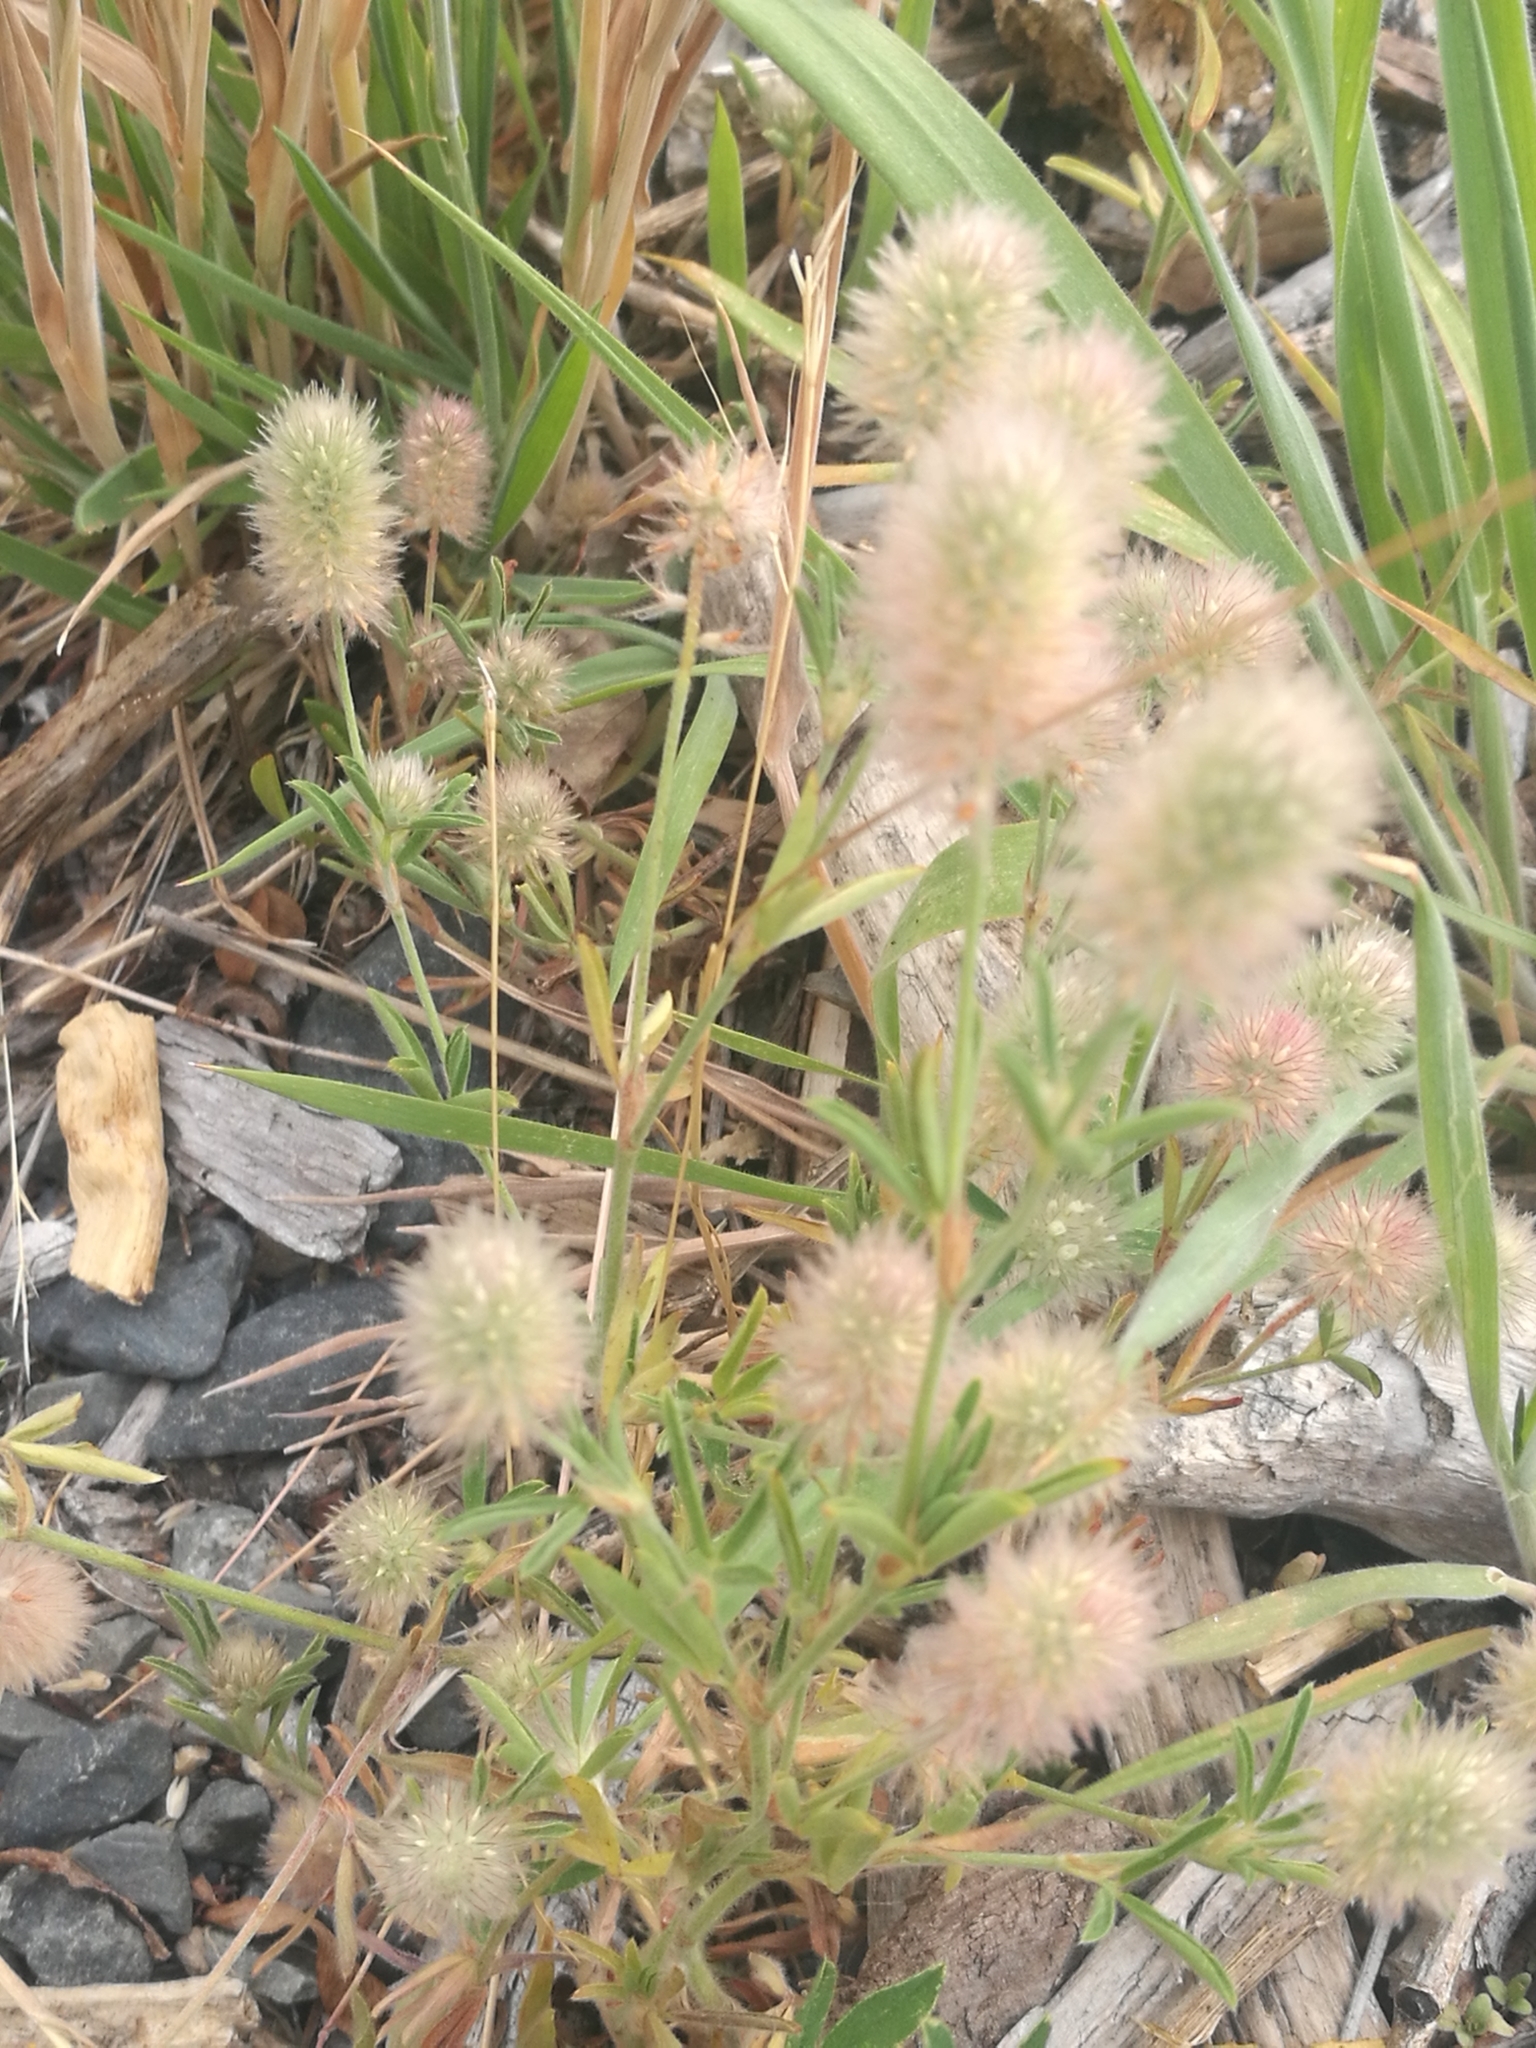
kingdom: Plantae
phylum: Tracheophyta
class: Magnoliopsida
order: Fabales
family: Fabaceae
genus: Trifolium
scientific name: Trifolium arvense
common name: Hare's-foot clover
